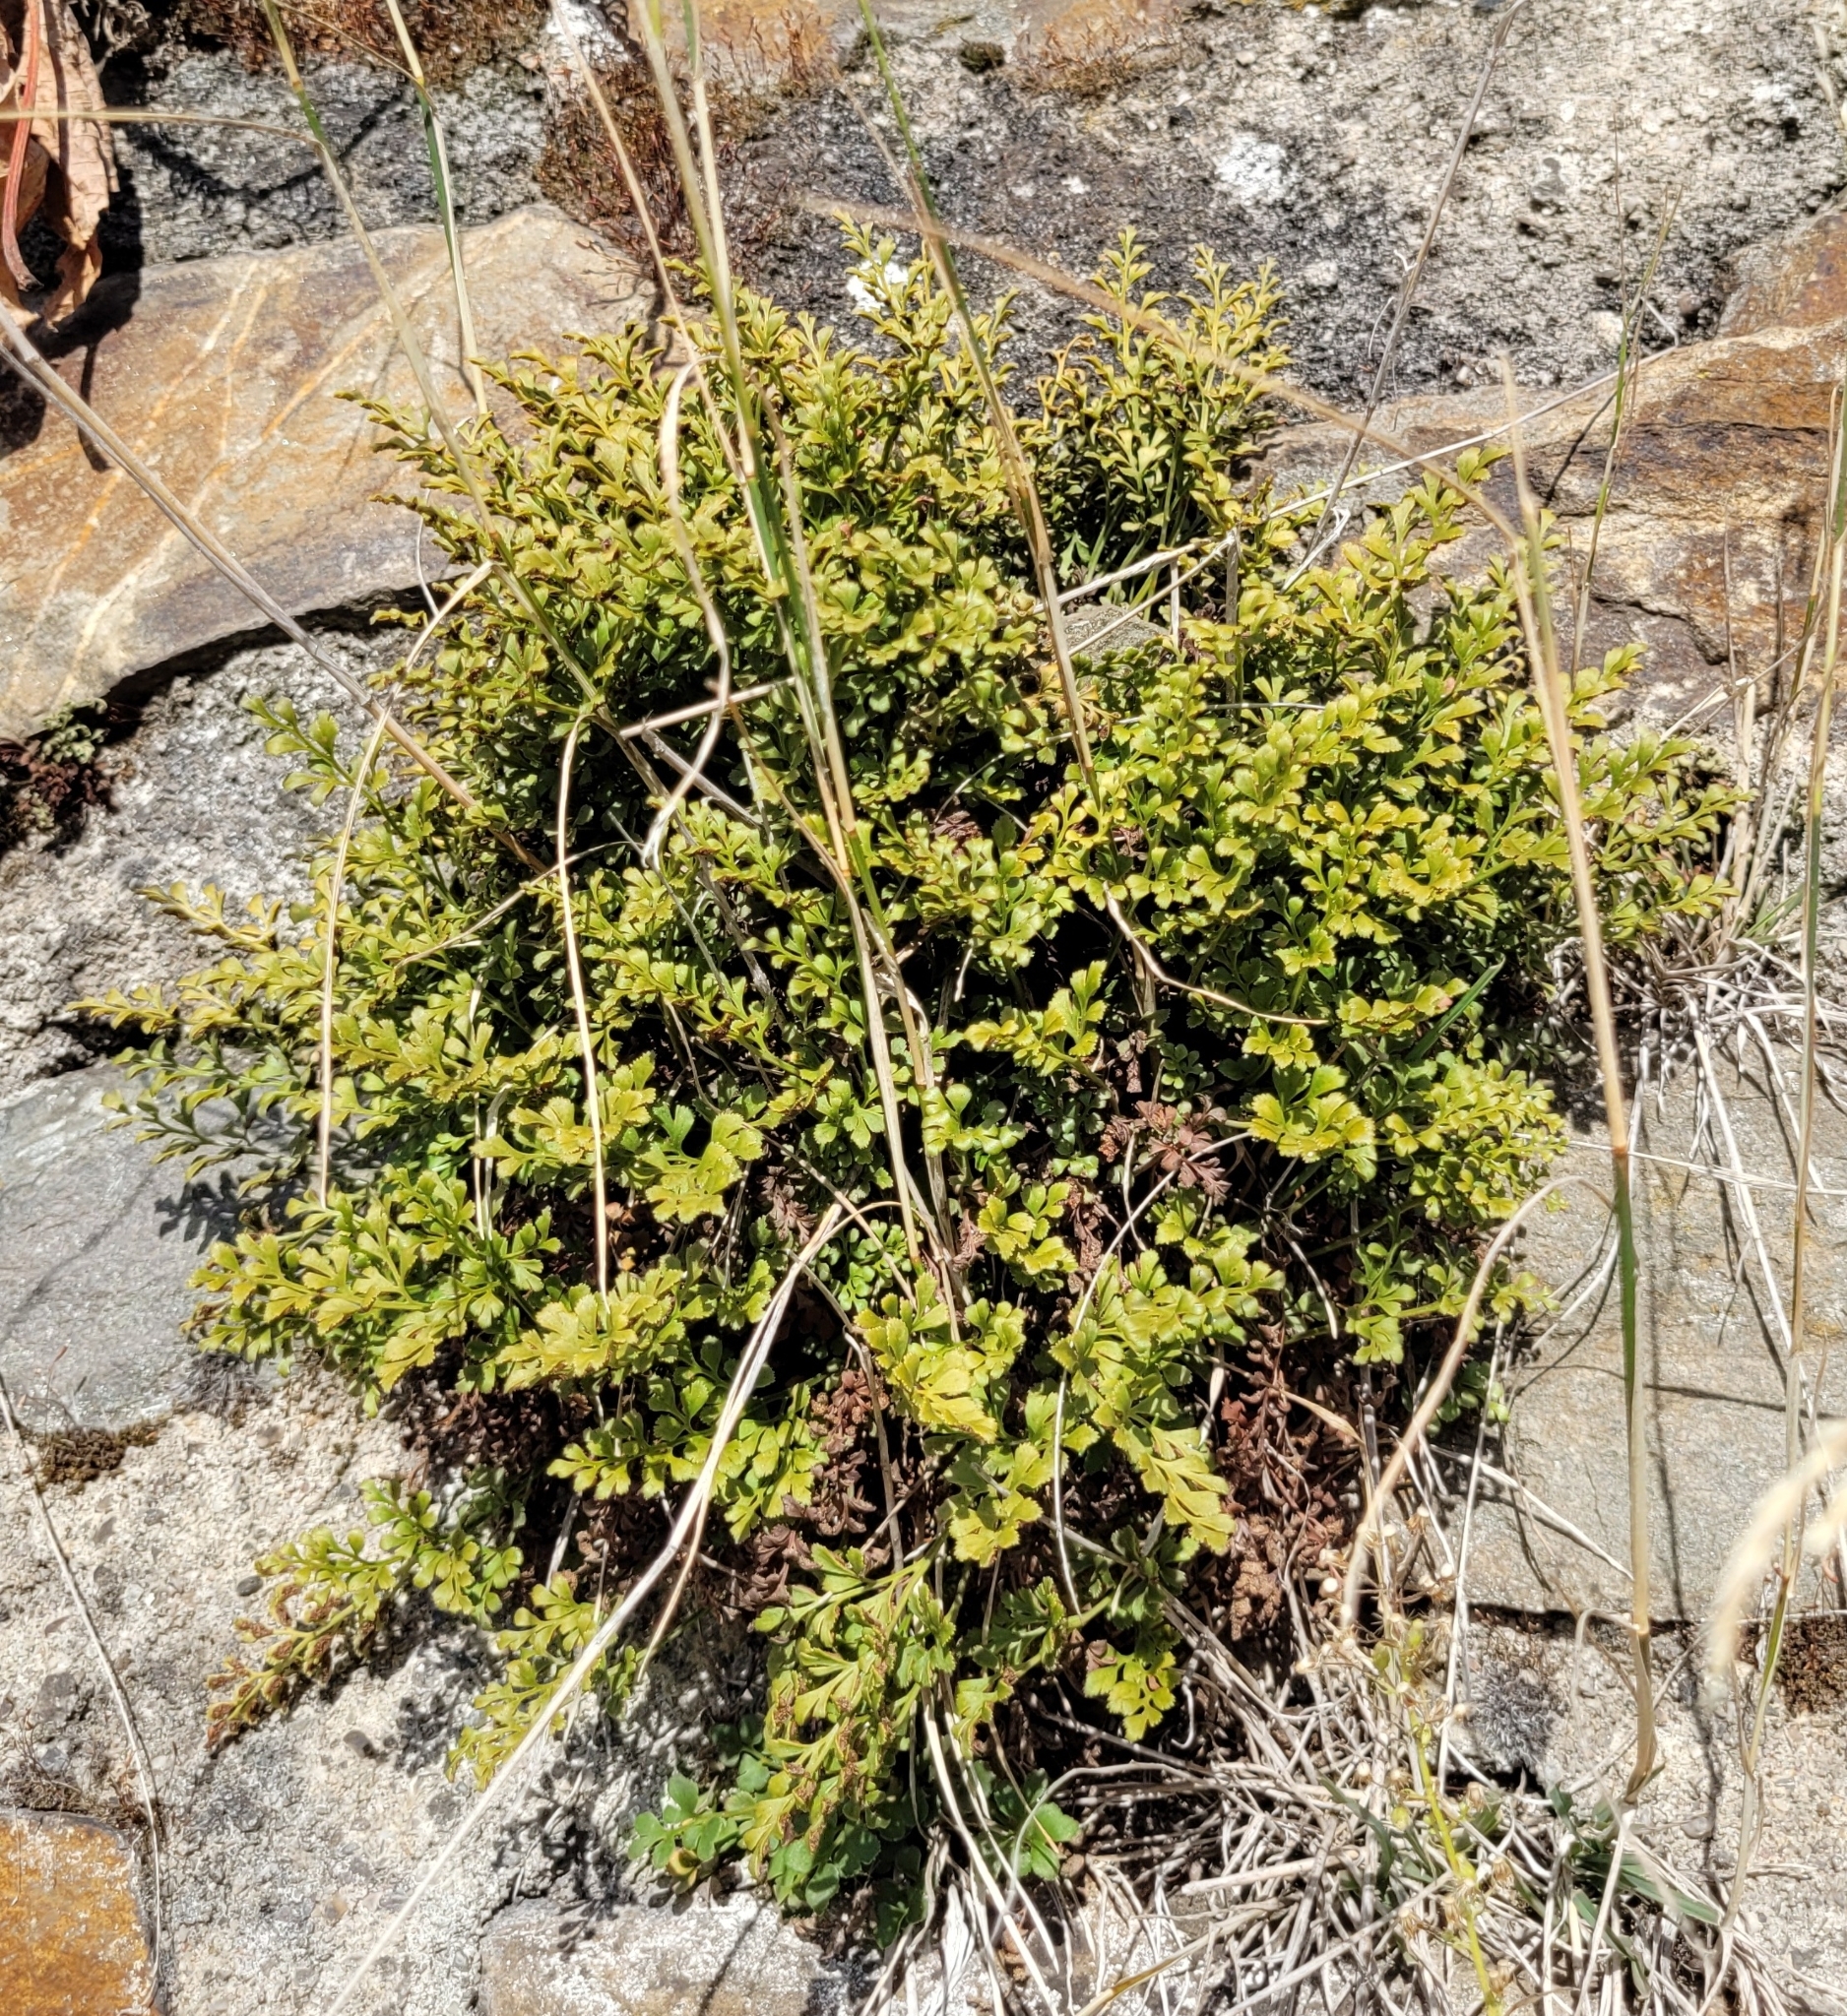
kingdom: Plantae
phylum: Tracheophyta
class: Polypodiopsida
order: Polypodiales
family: Aspleniaceae
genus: Asplenium
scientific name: Asplenium ruta-muraria
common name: Wall-rue
